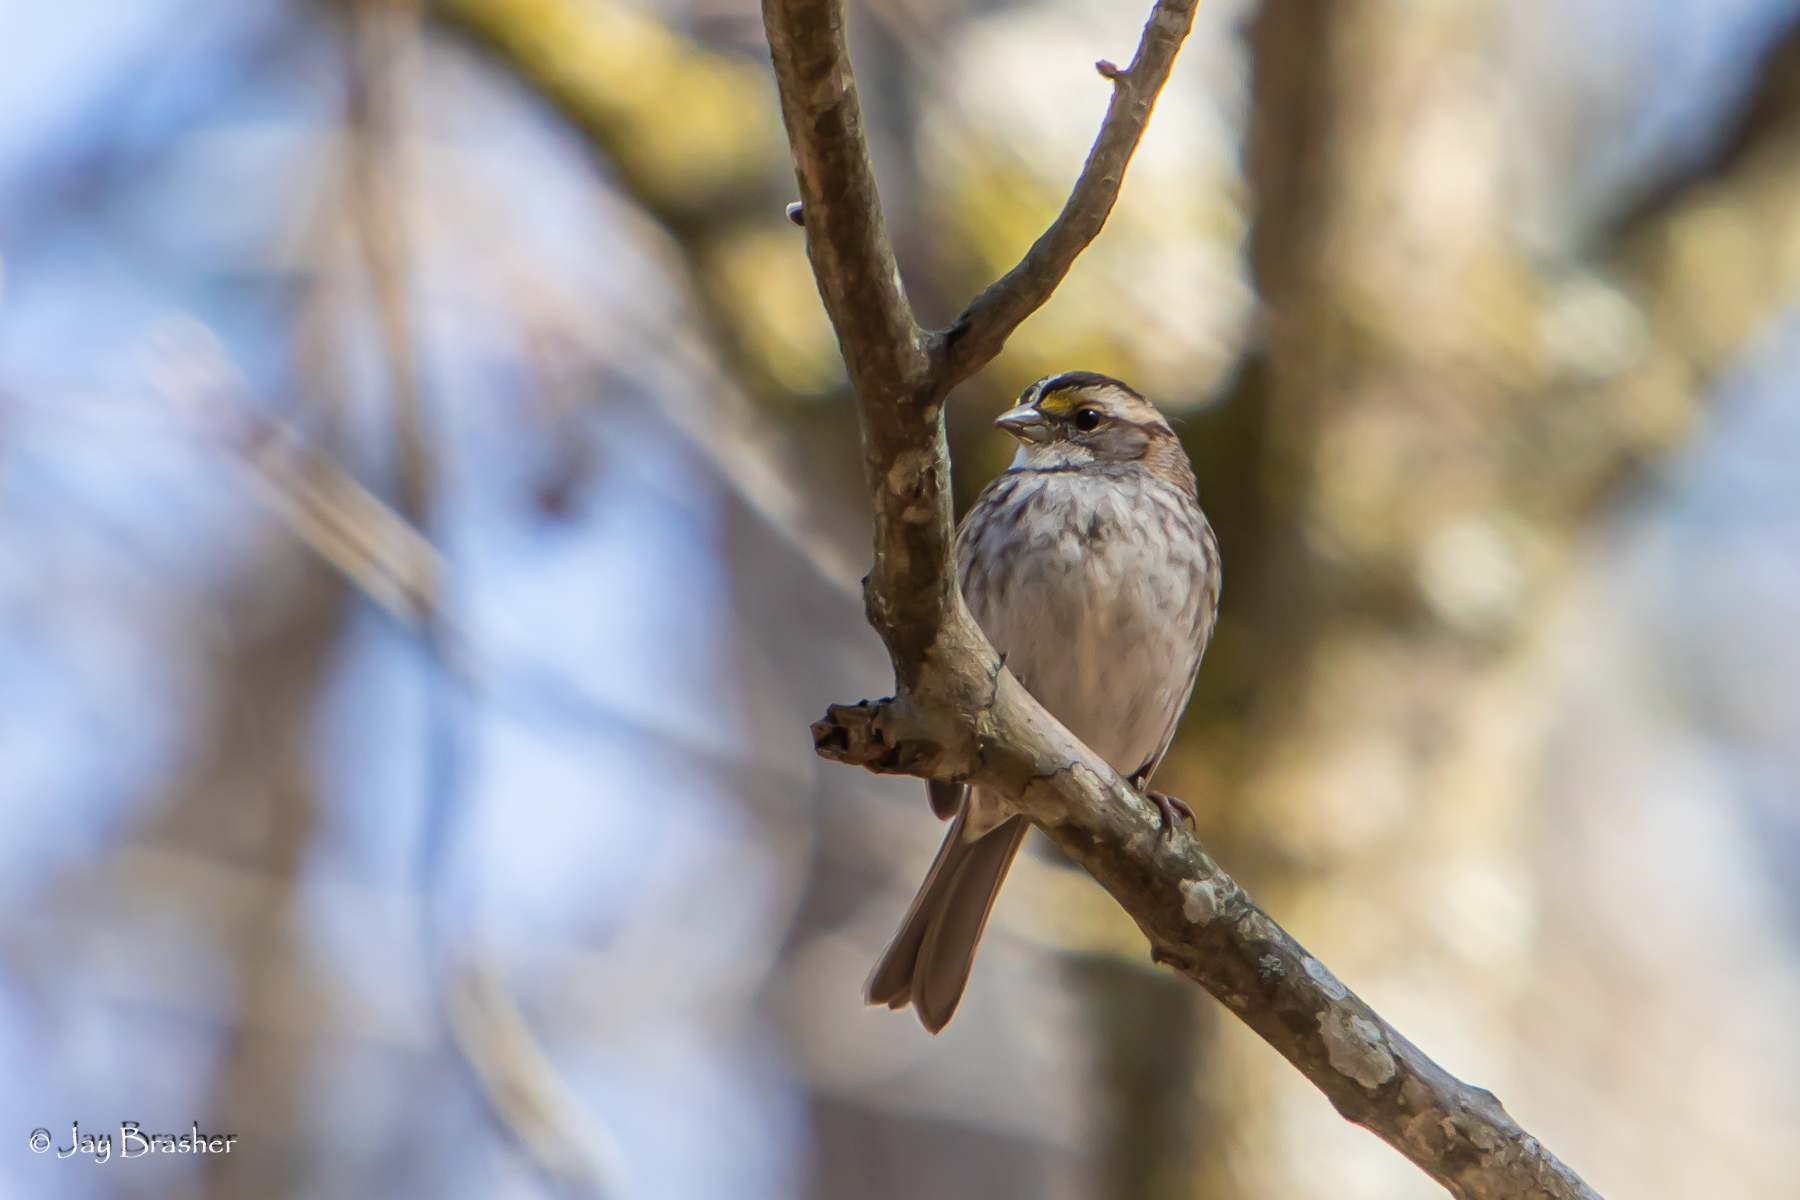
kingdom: Animalia
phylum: Chordata
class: Aves
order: Passeriformes
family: Passerellidae
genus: Zonotrichia
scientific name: Zonotrichia albicollis
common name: White-throated sparrow
